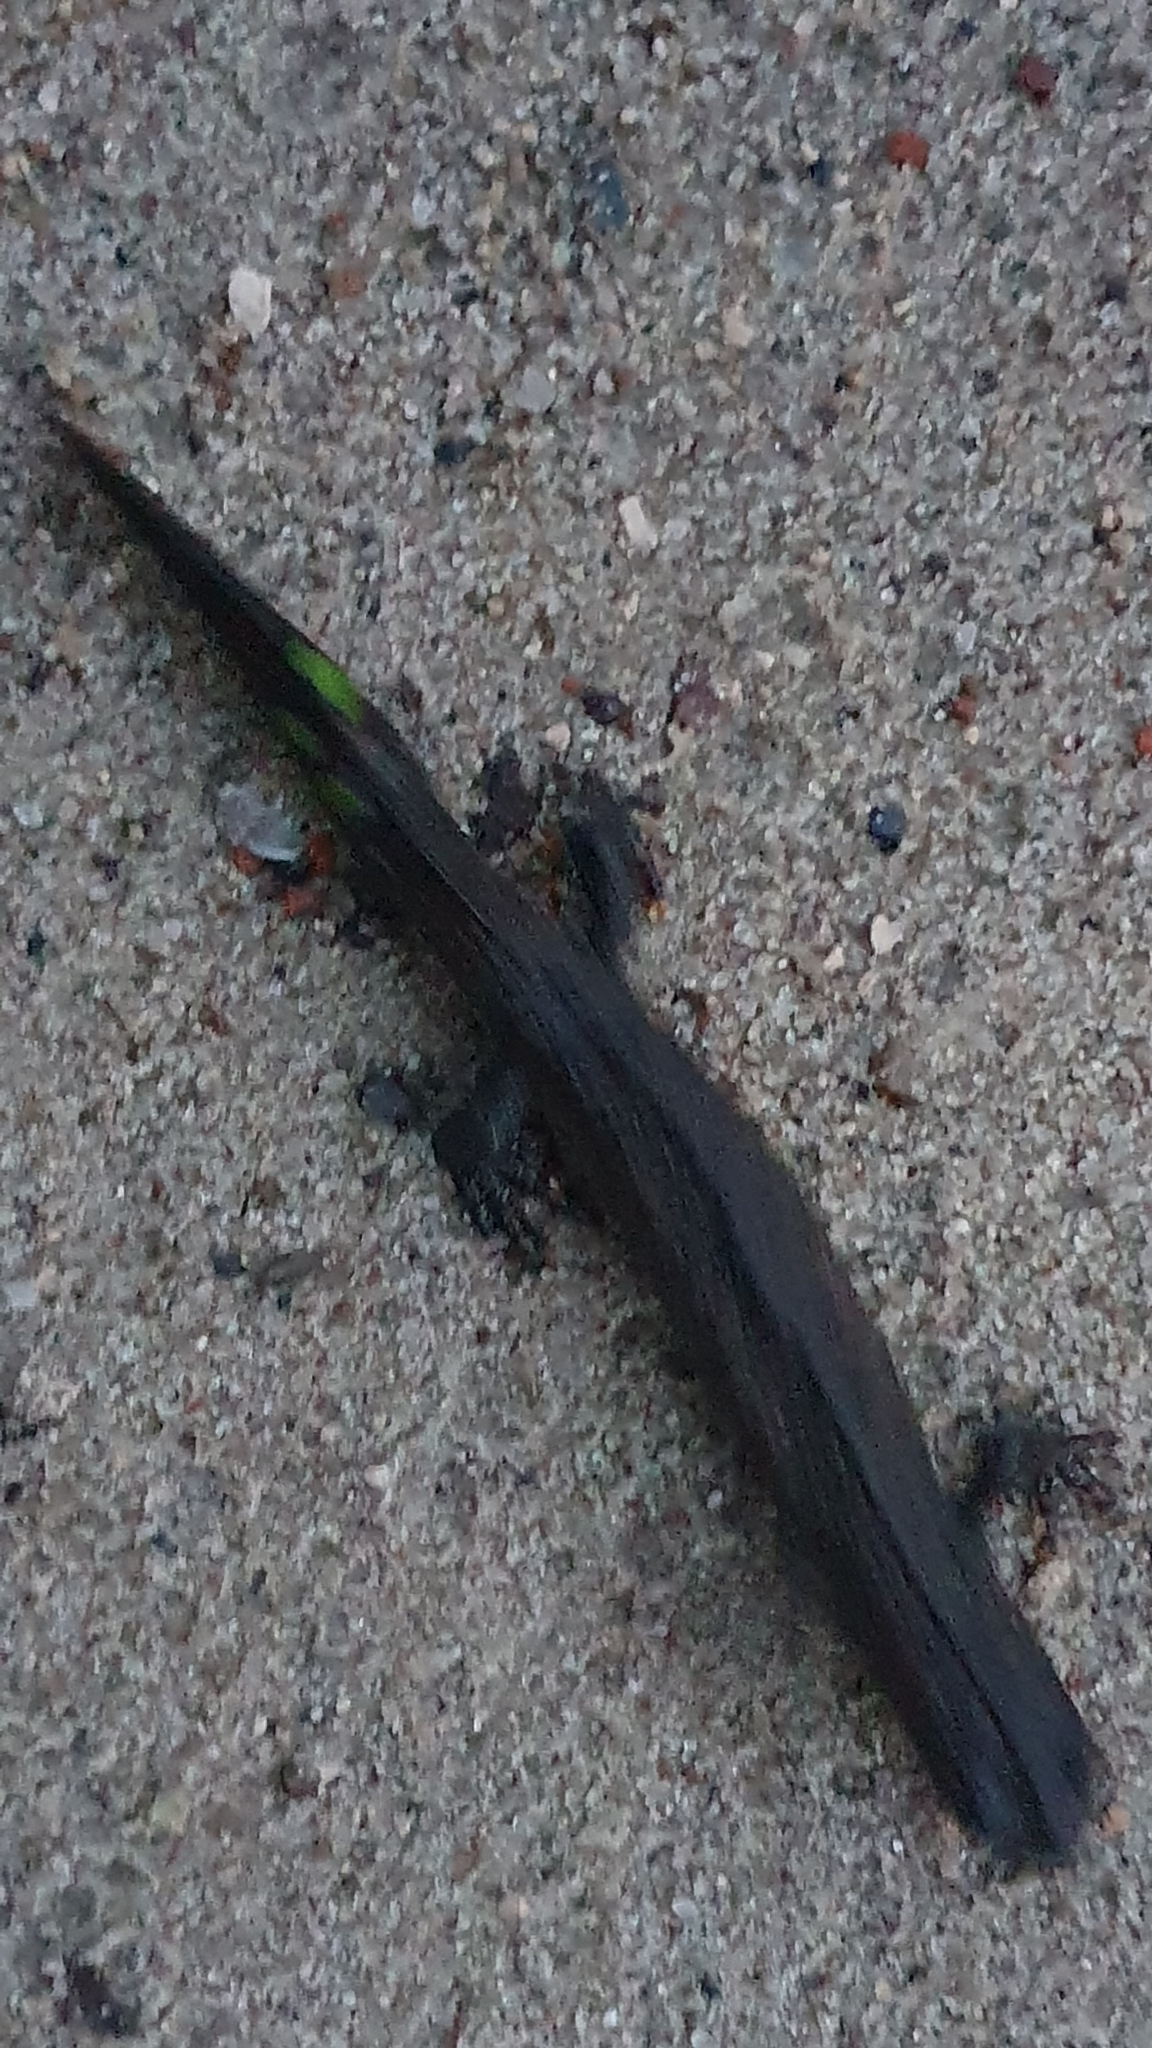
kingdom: Animalia
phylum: Chordata
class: Amphibia
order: Caudata
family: Salamandridae
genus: Triturus
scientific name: Triturus cristatus
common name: Crested newt
